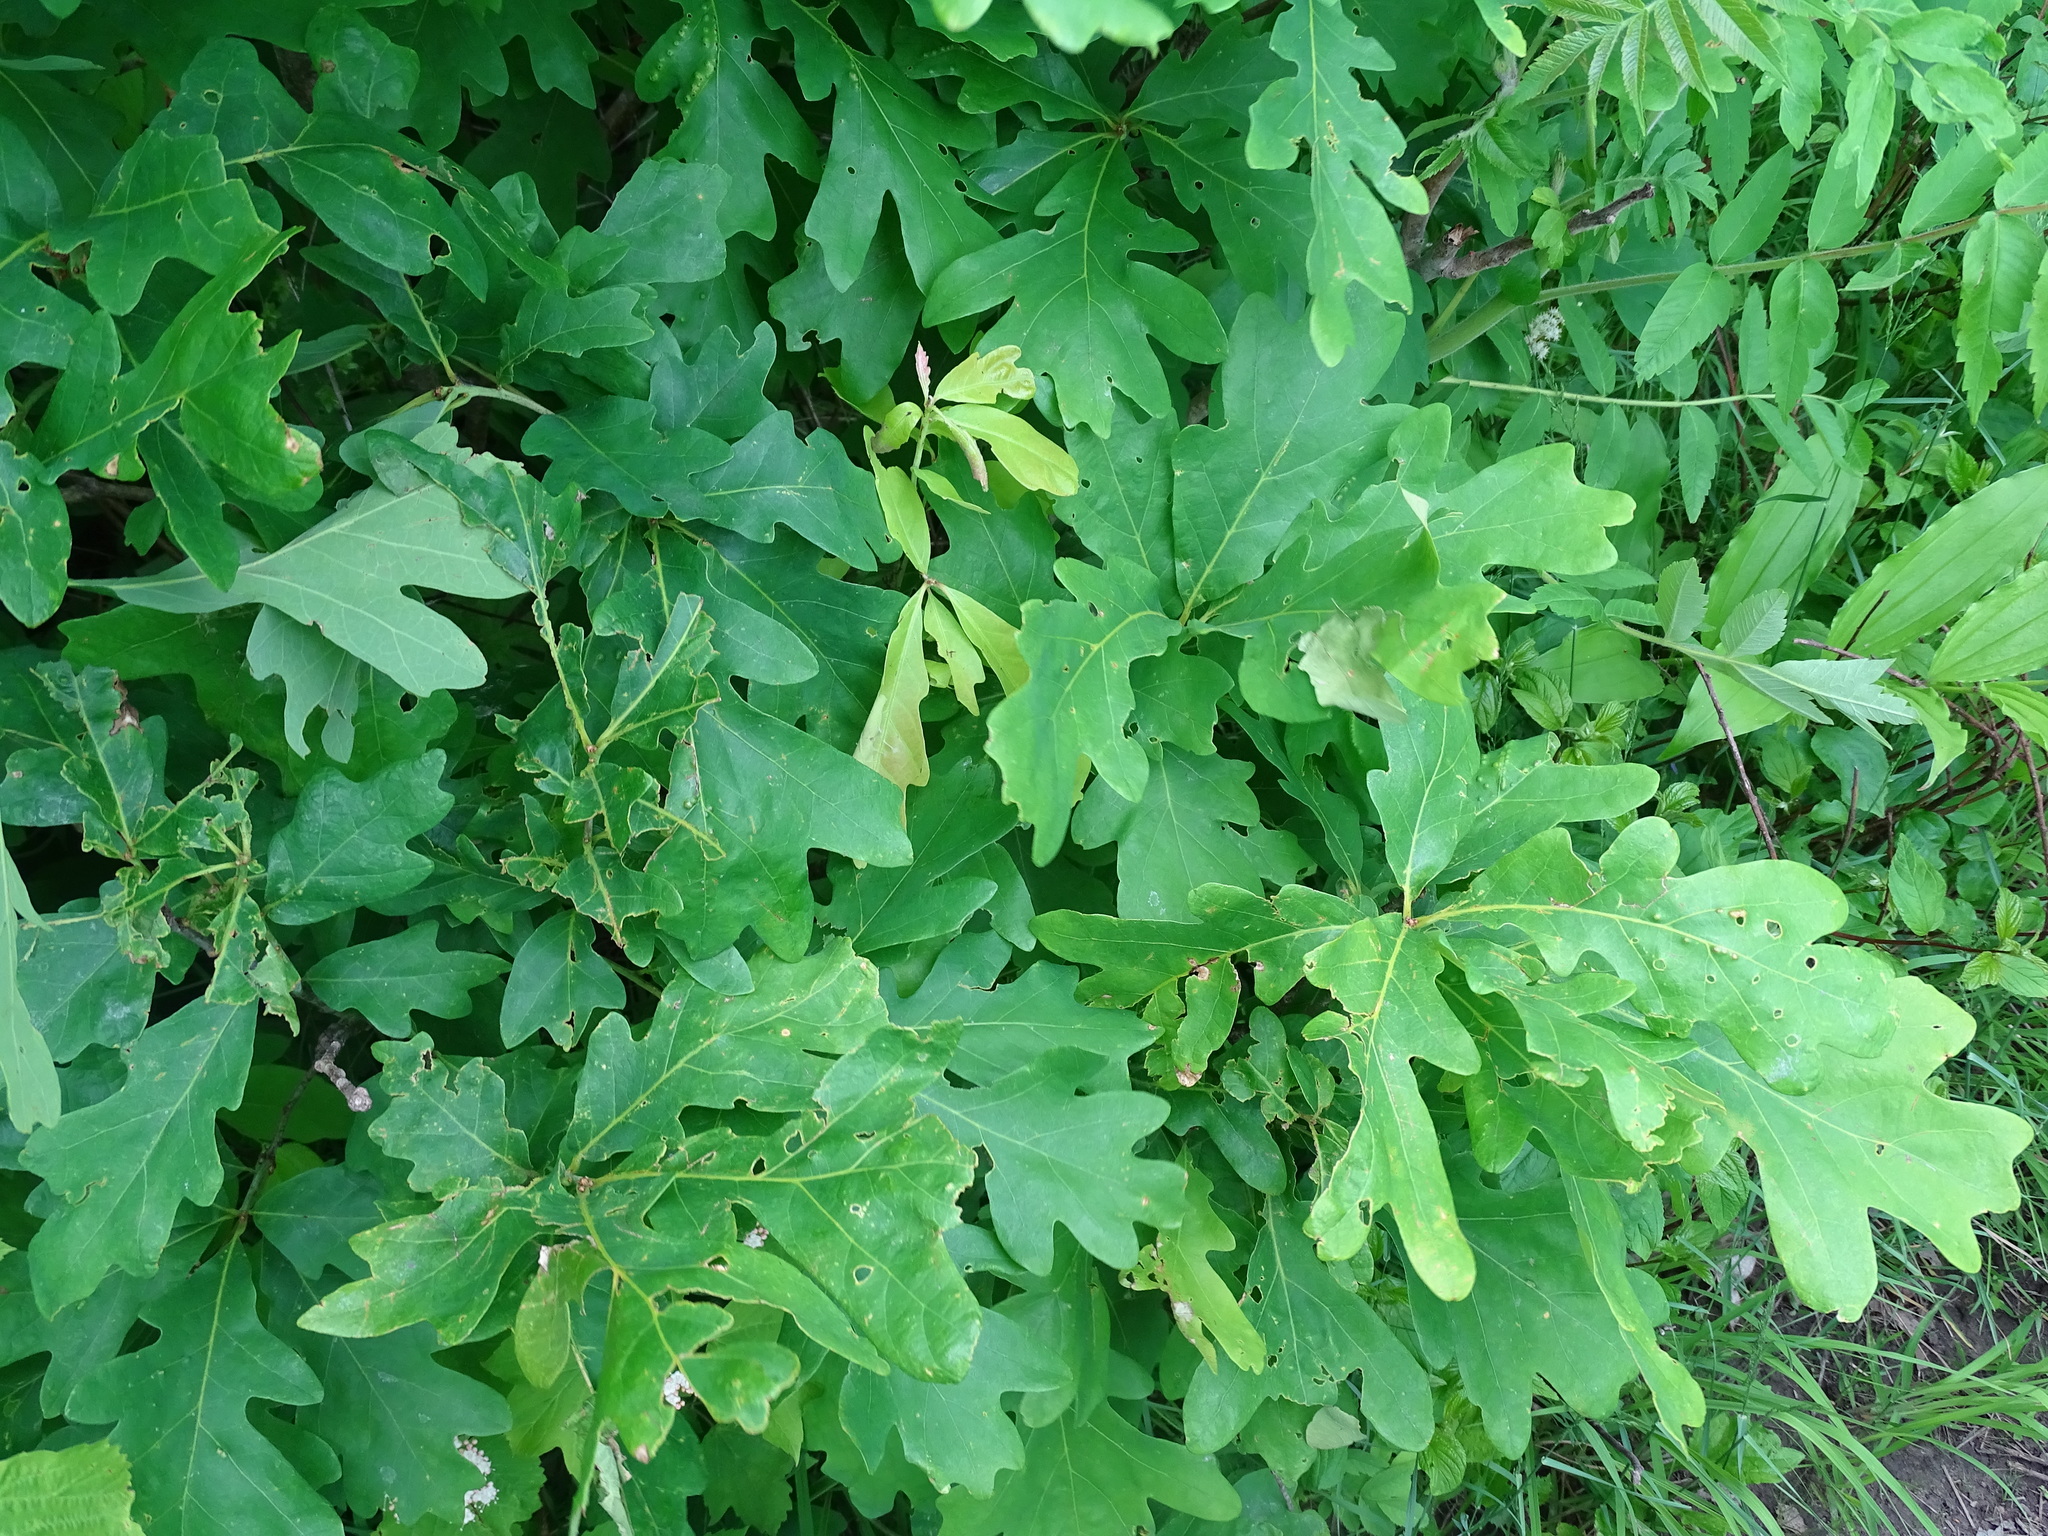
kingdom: Plantae
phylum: Tracheophyta
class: Magnoliopsida
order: Fagales
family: Fagaceae
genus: Quercus
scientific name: Quercus alba
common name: White oak
